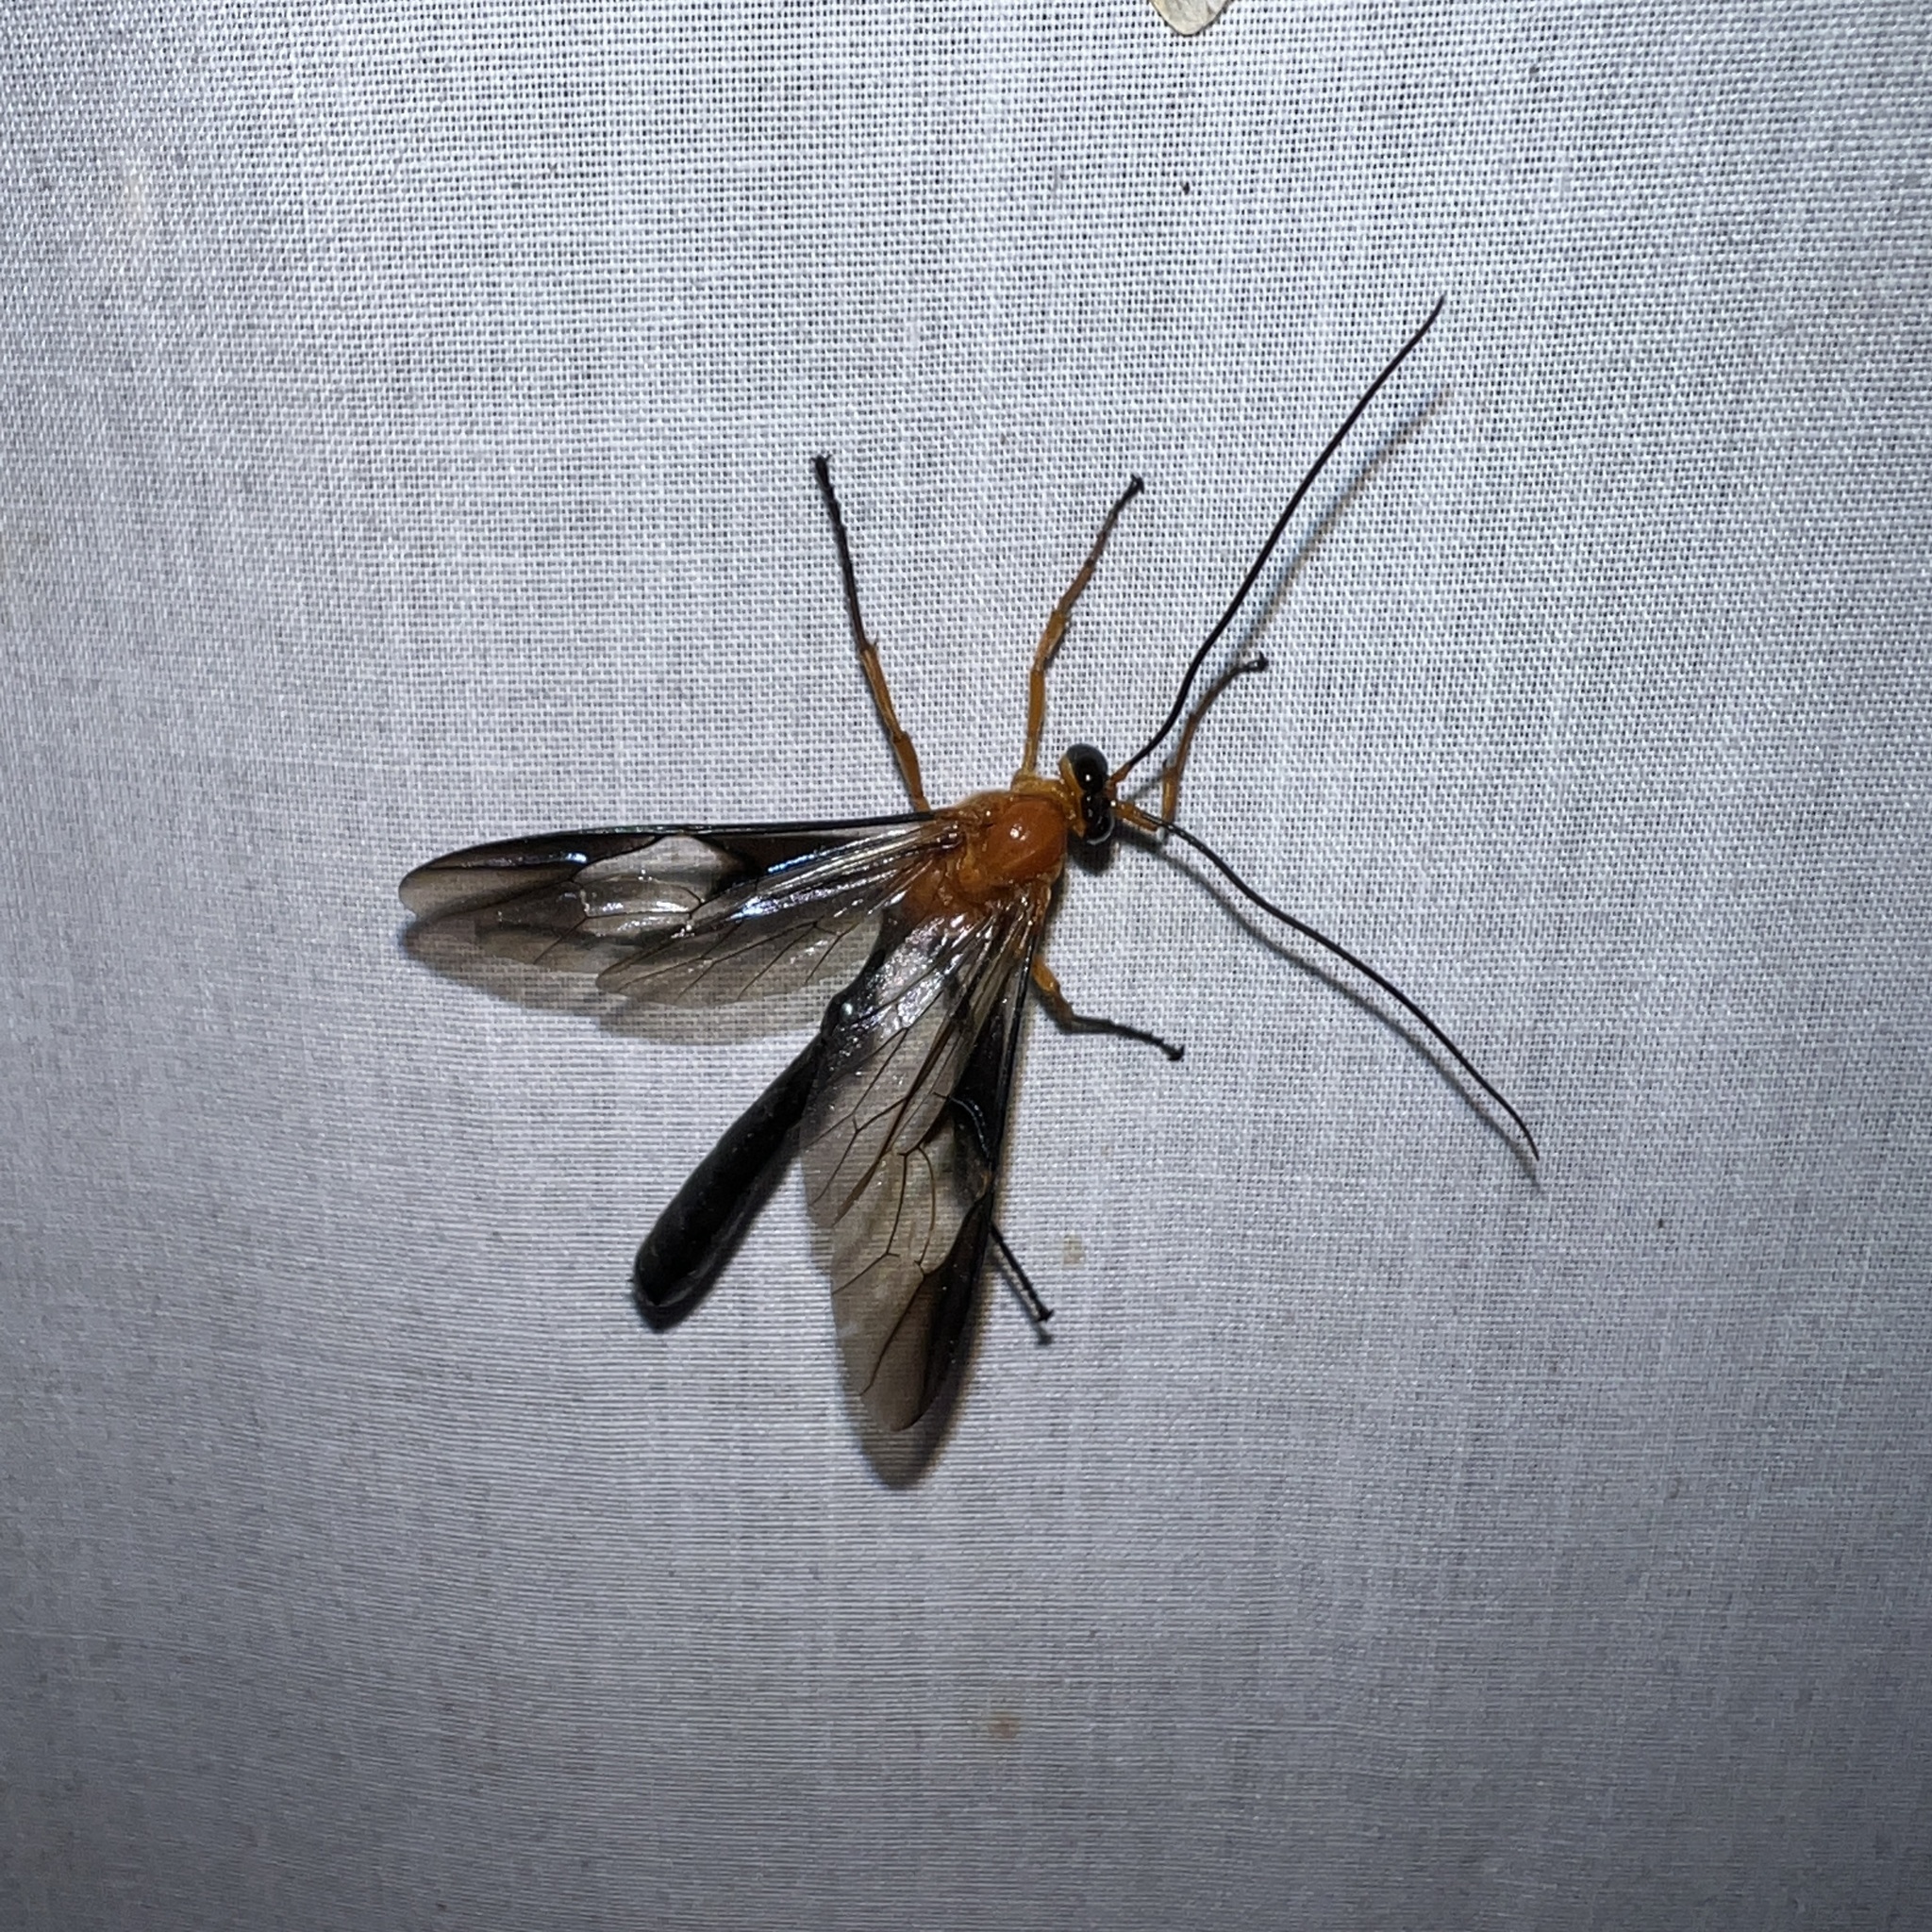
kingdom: Animalia
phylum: Arthropoda
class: Insecta
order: Hymenoptera
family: Ichneumonidae
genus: Thyreodon
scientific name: Thyreodon atriventris
